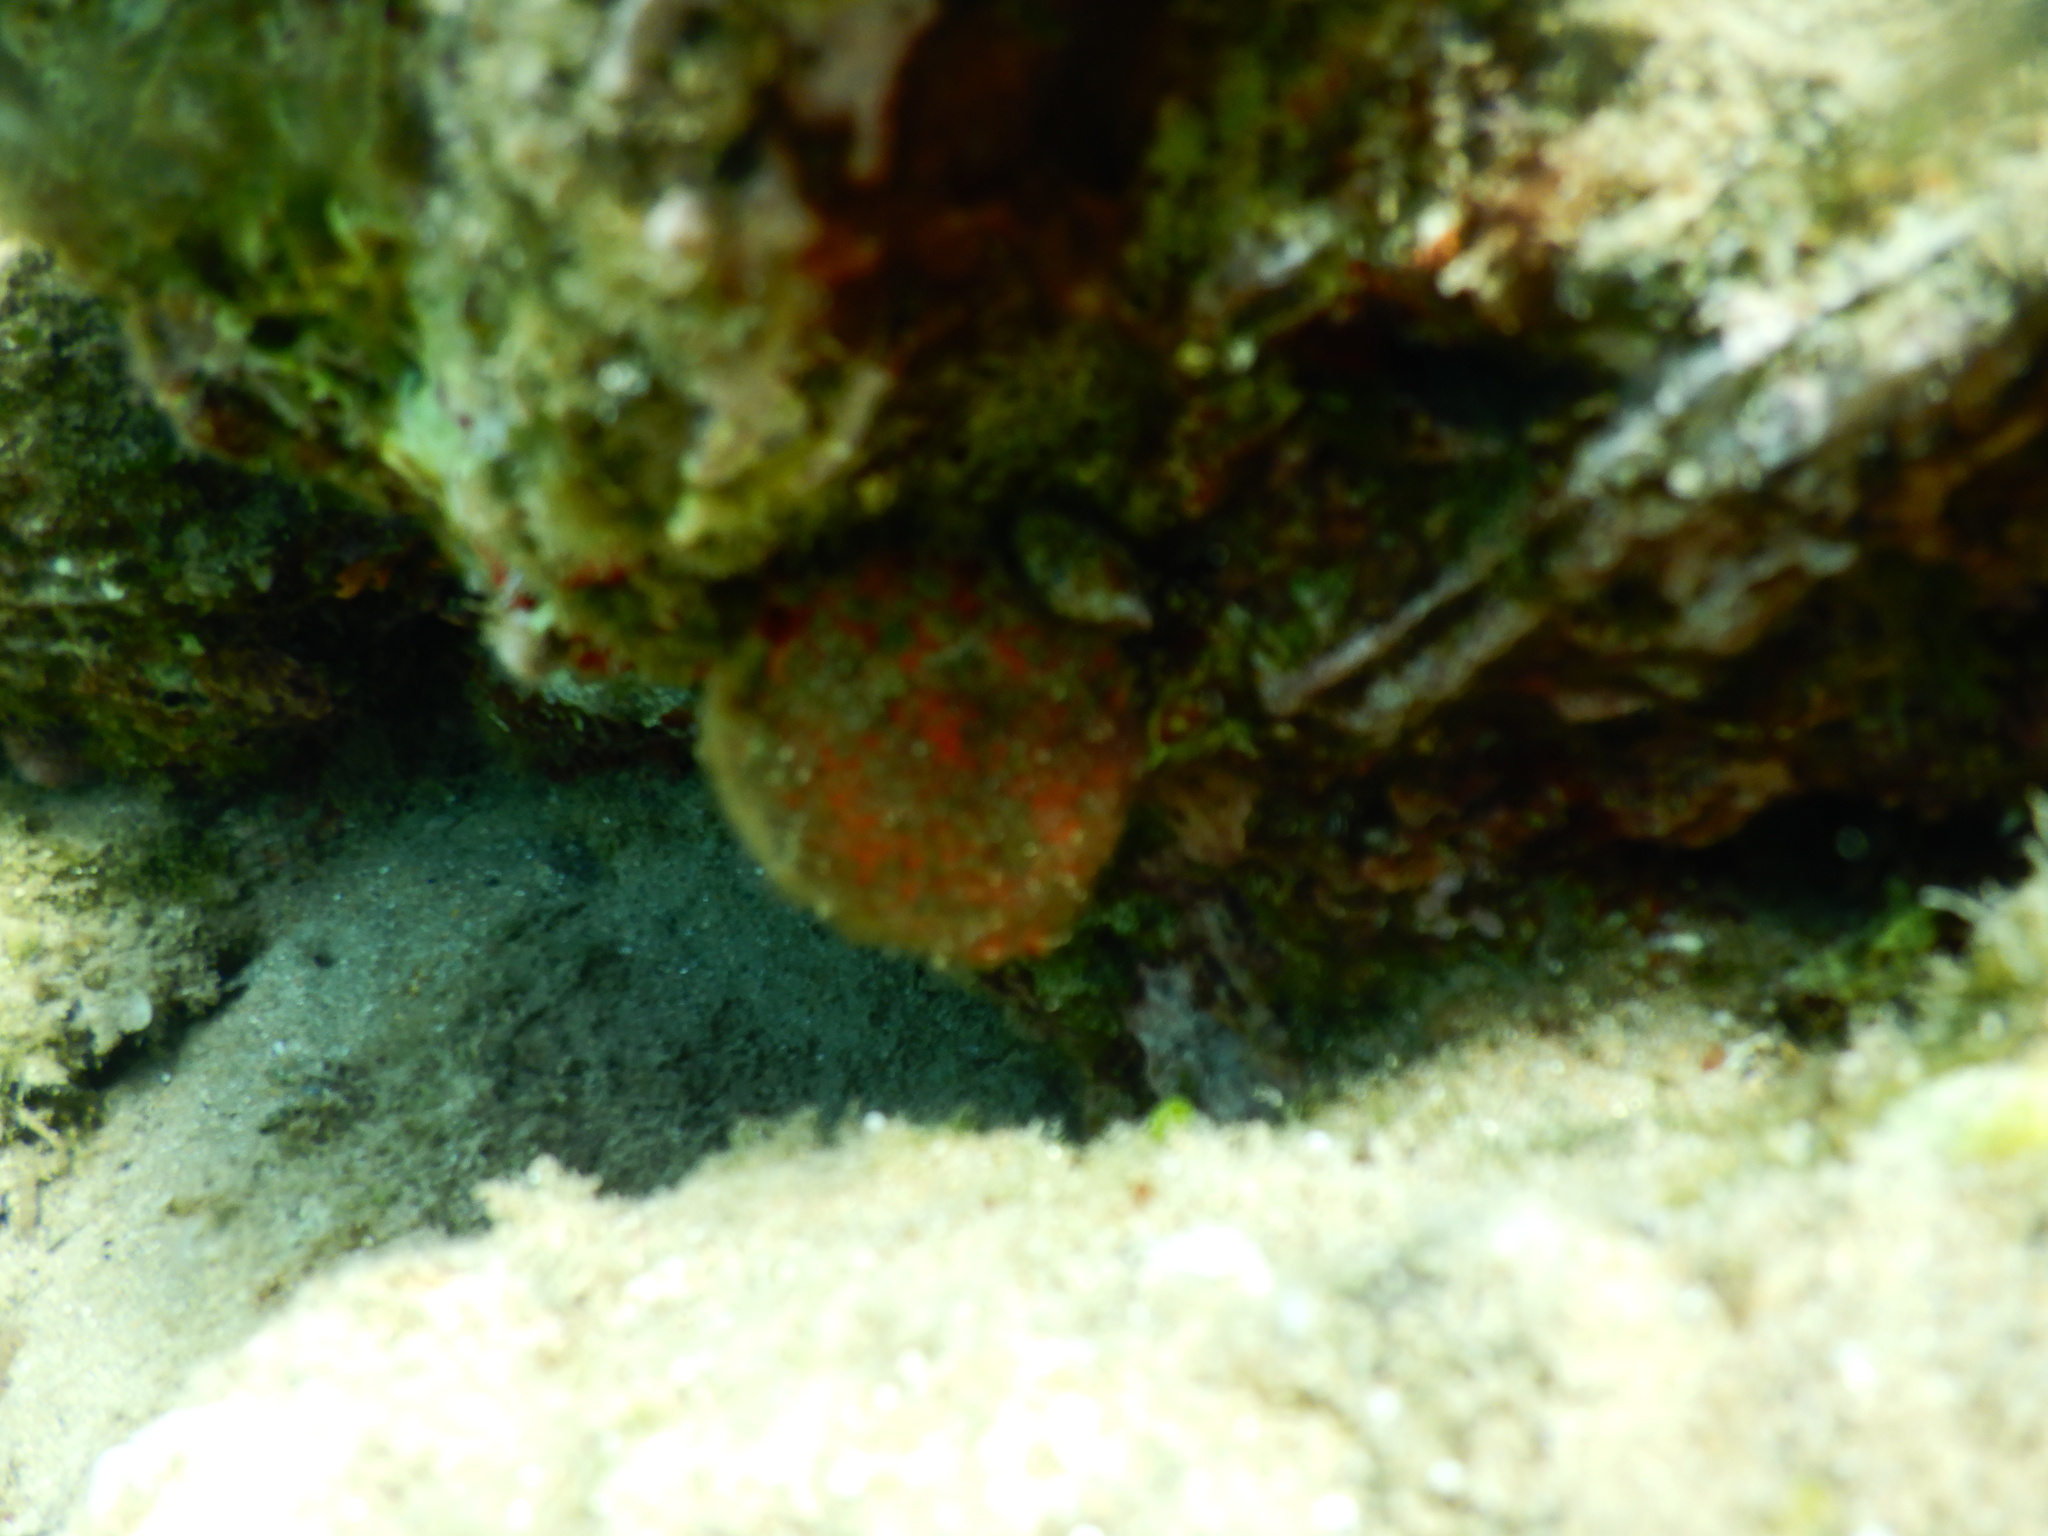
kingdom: Animalia
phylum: Porifera
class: Demospongiae
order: Tethyida
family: Tethyidae
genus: Tethya
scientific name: Tethya aurantium
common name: Golf ball sponge
